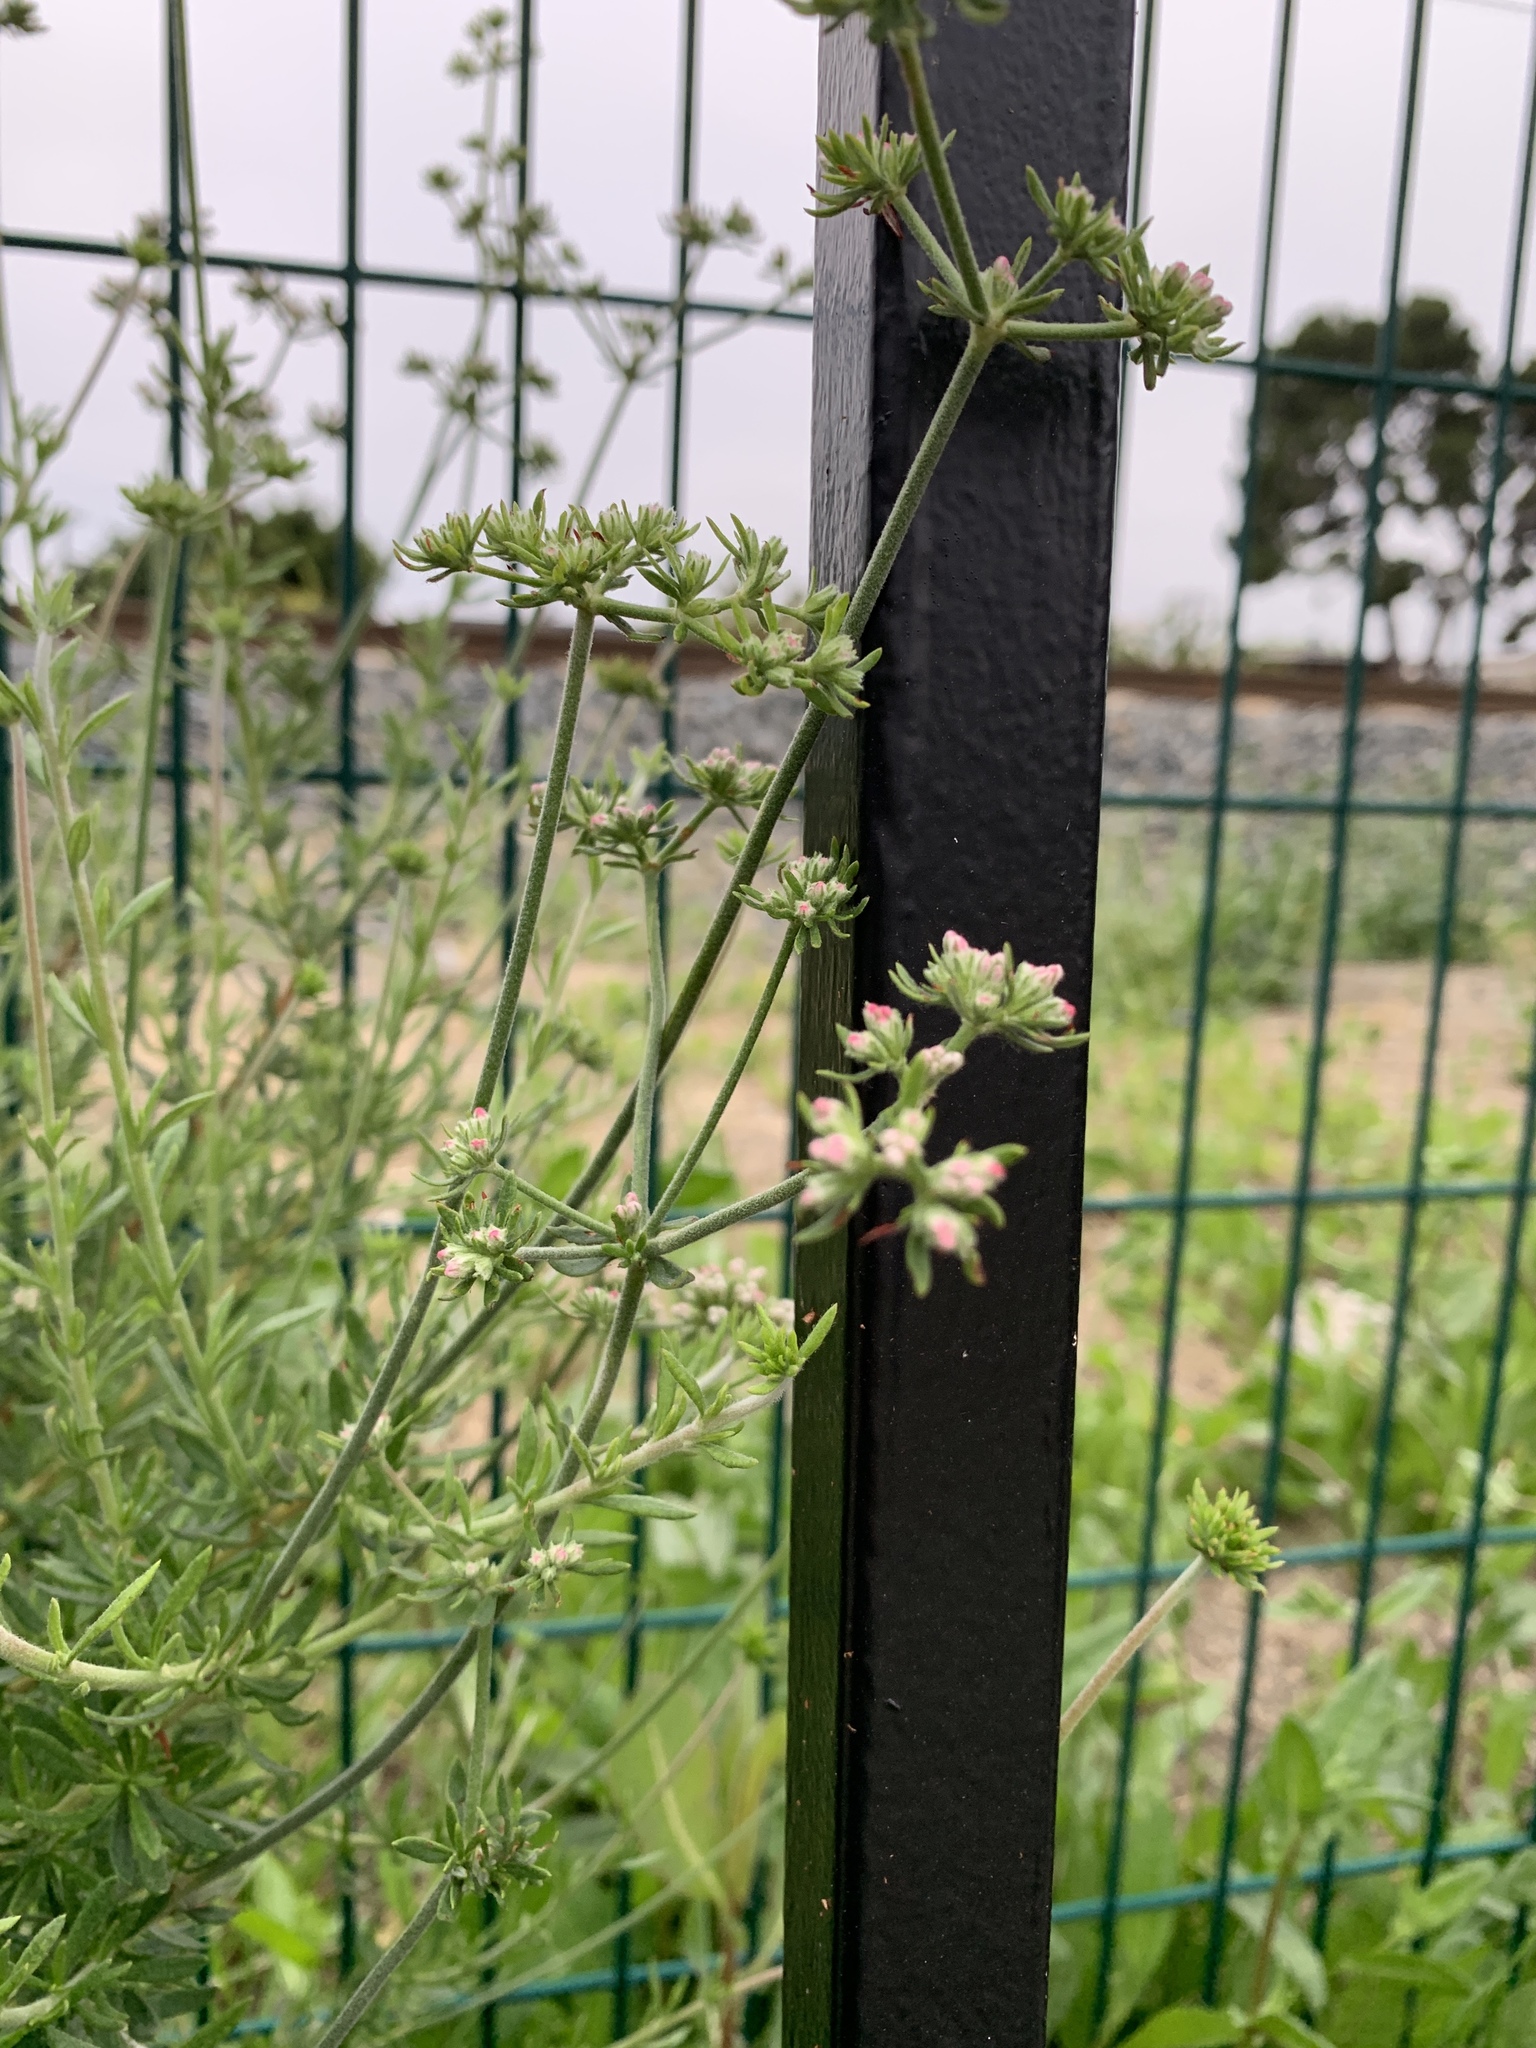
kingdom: Plantae
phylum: Tracheophyta
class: Magnoliopsida
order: Caryophyllales
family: Polygonaceae
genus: Eriogonum
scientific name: Eriogonum fasciculatum
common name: California wild buckwheat
